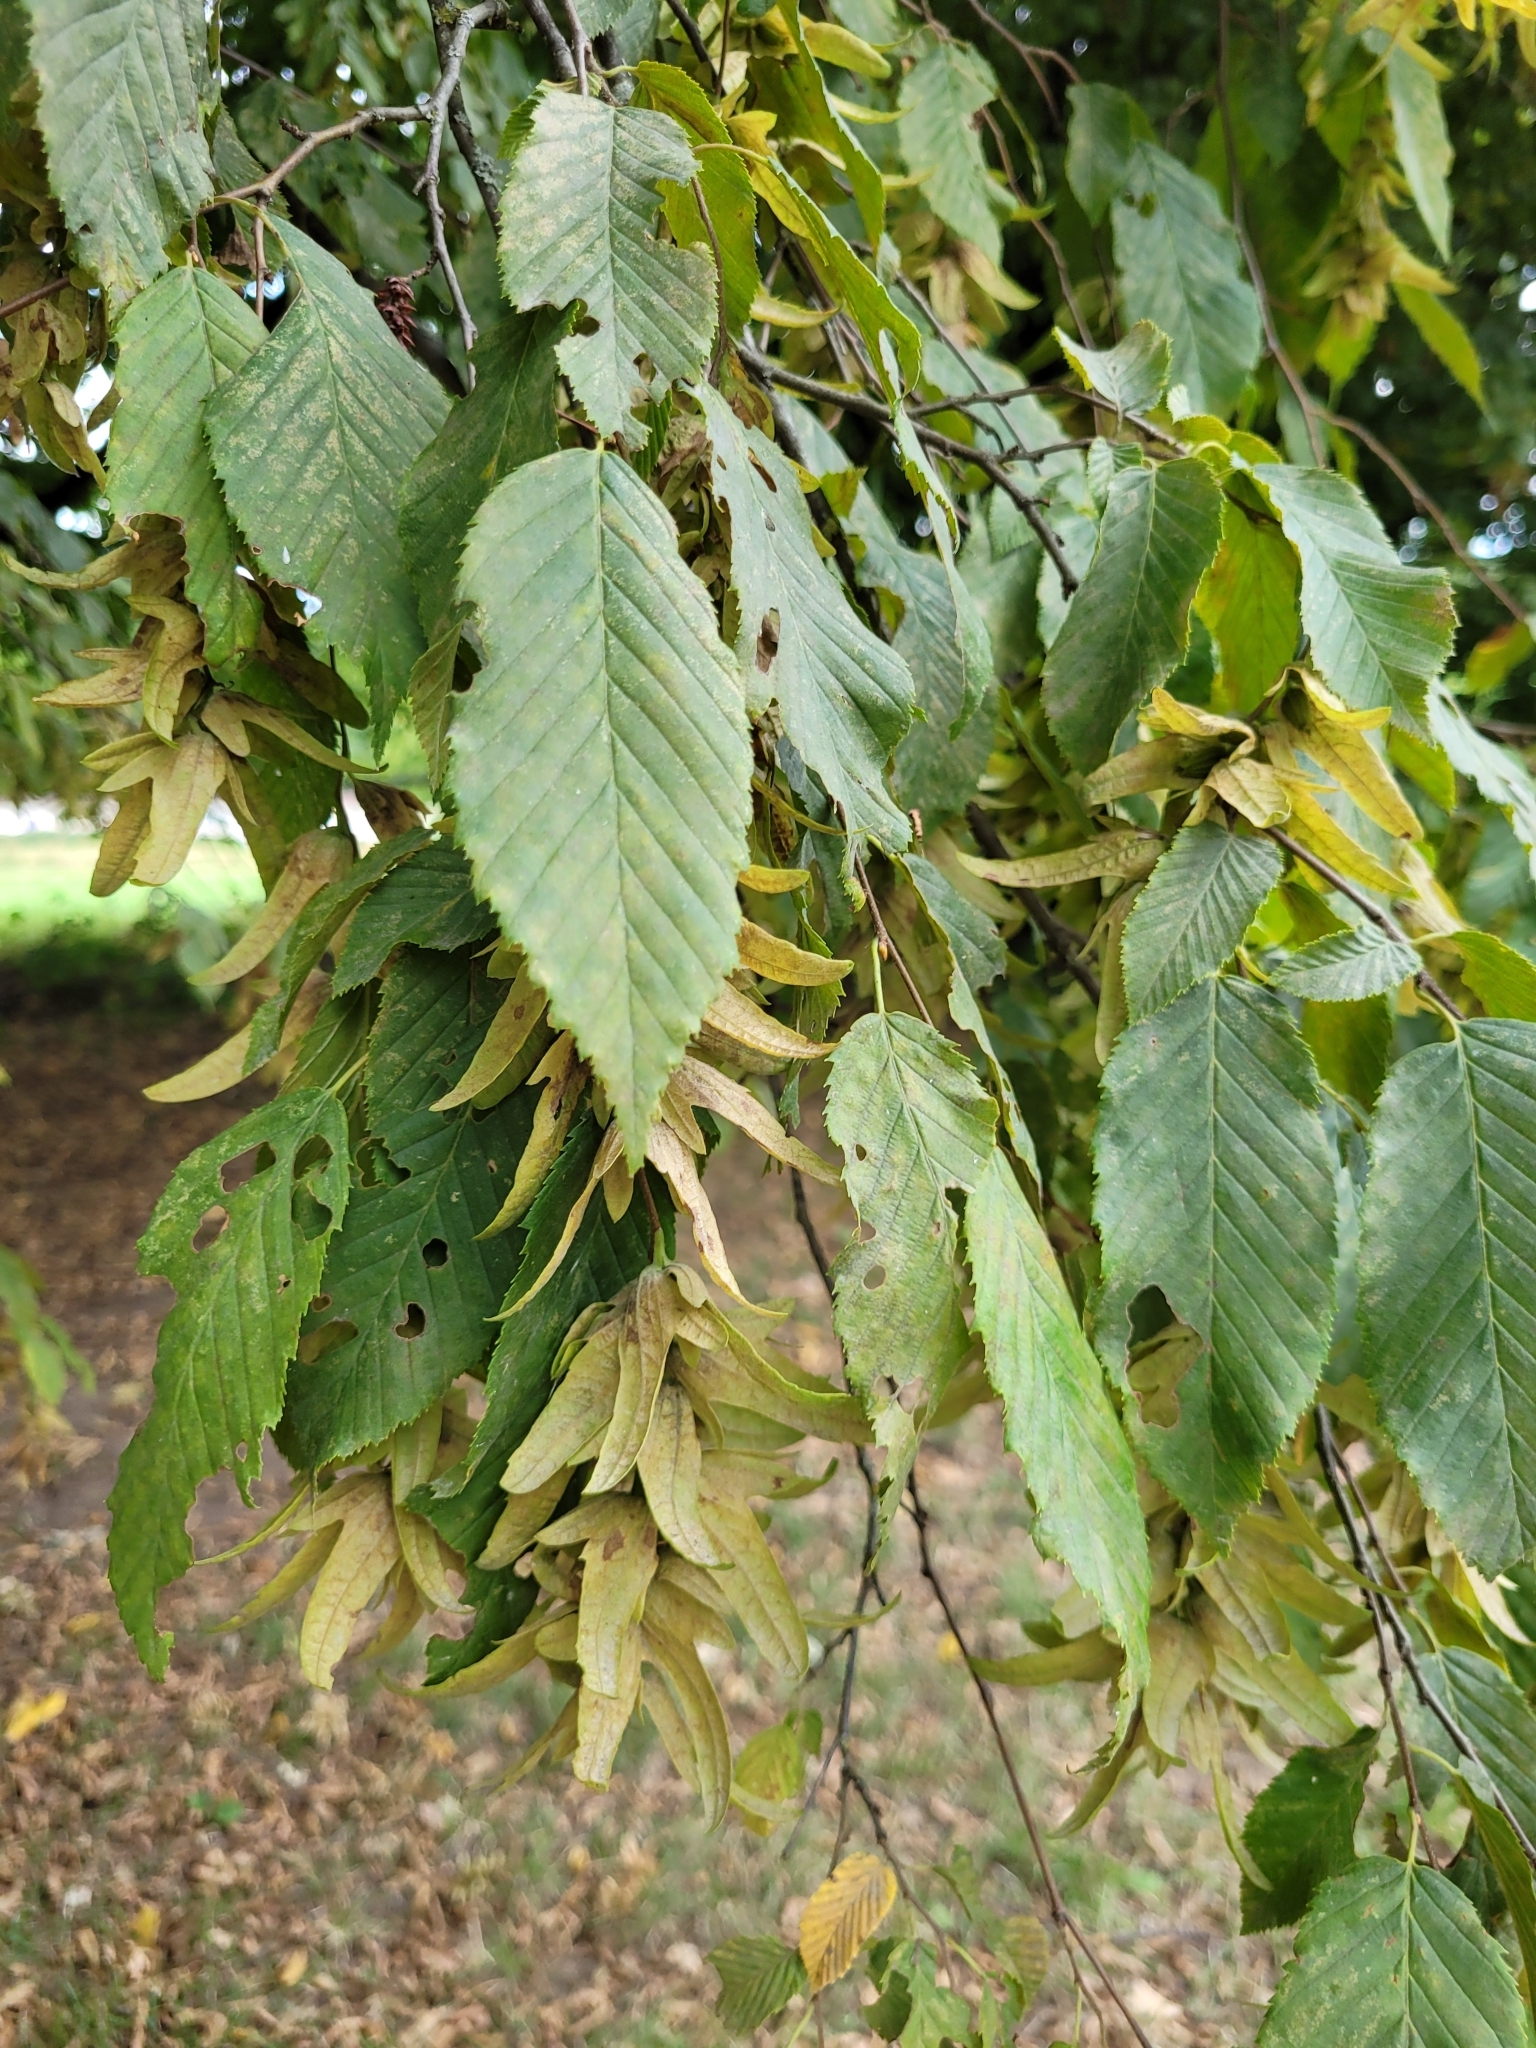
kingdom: Plantae
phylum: Tracheophyta
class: Magnoliopsida
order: Fagales
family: Betulaceae
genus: Carpinus
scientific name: Carpinus betulus
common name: Hornbeam
